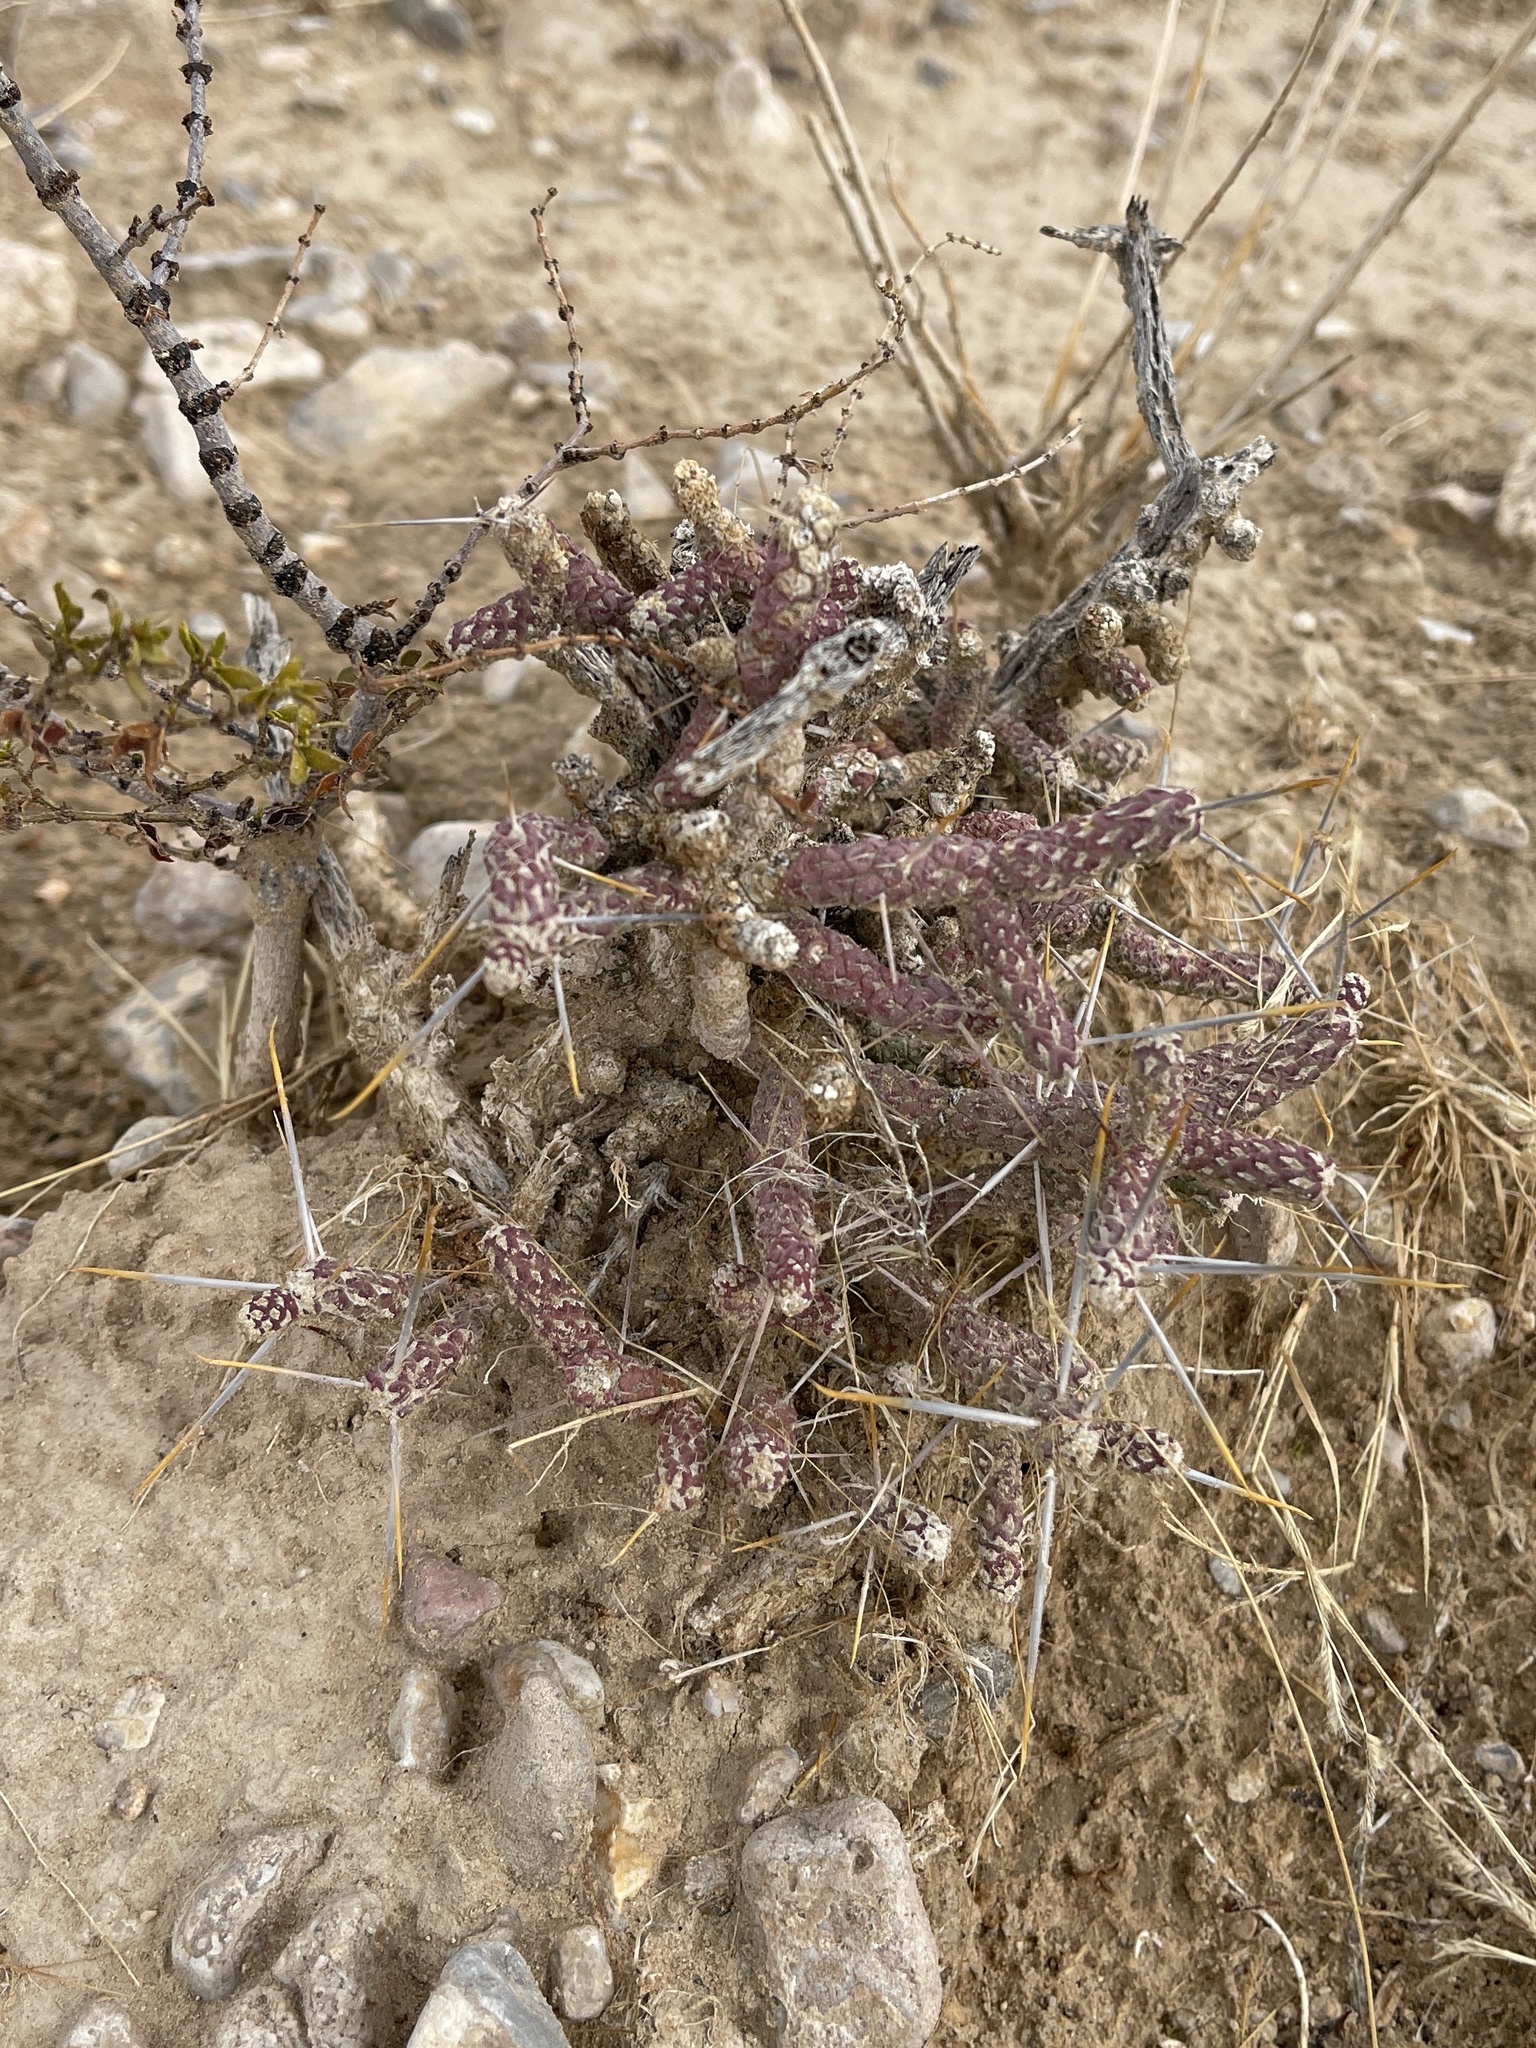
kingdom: Plantae
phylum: Tracheophyta
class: Magnoliopsida
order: Caryophyllales
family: Cactaceae
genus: Cylindropuntia
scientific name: Cylindropuntia ramosissima
